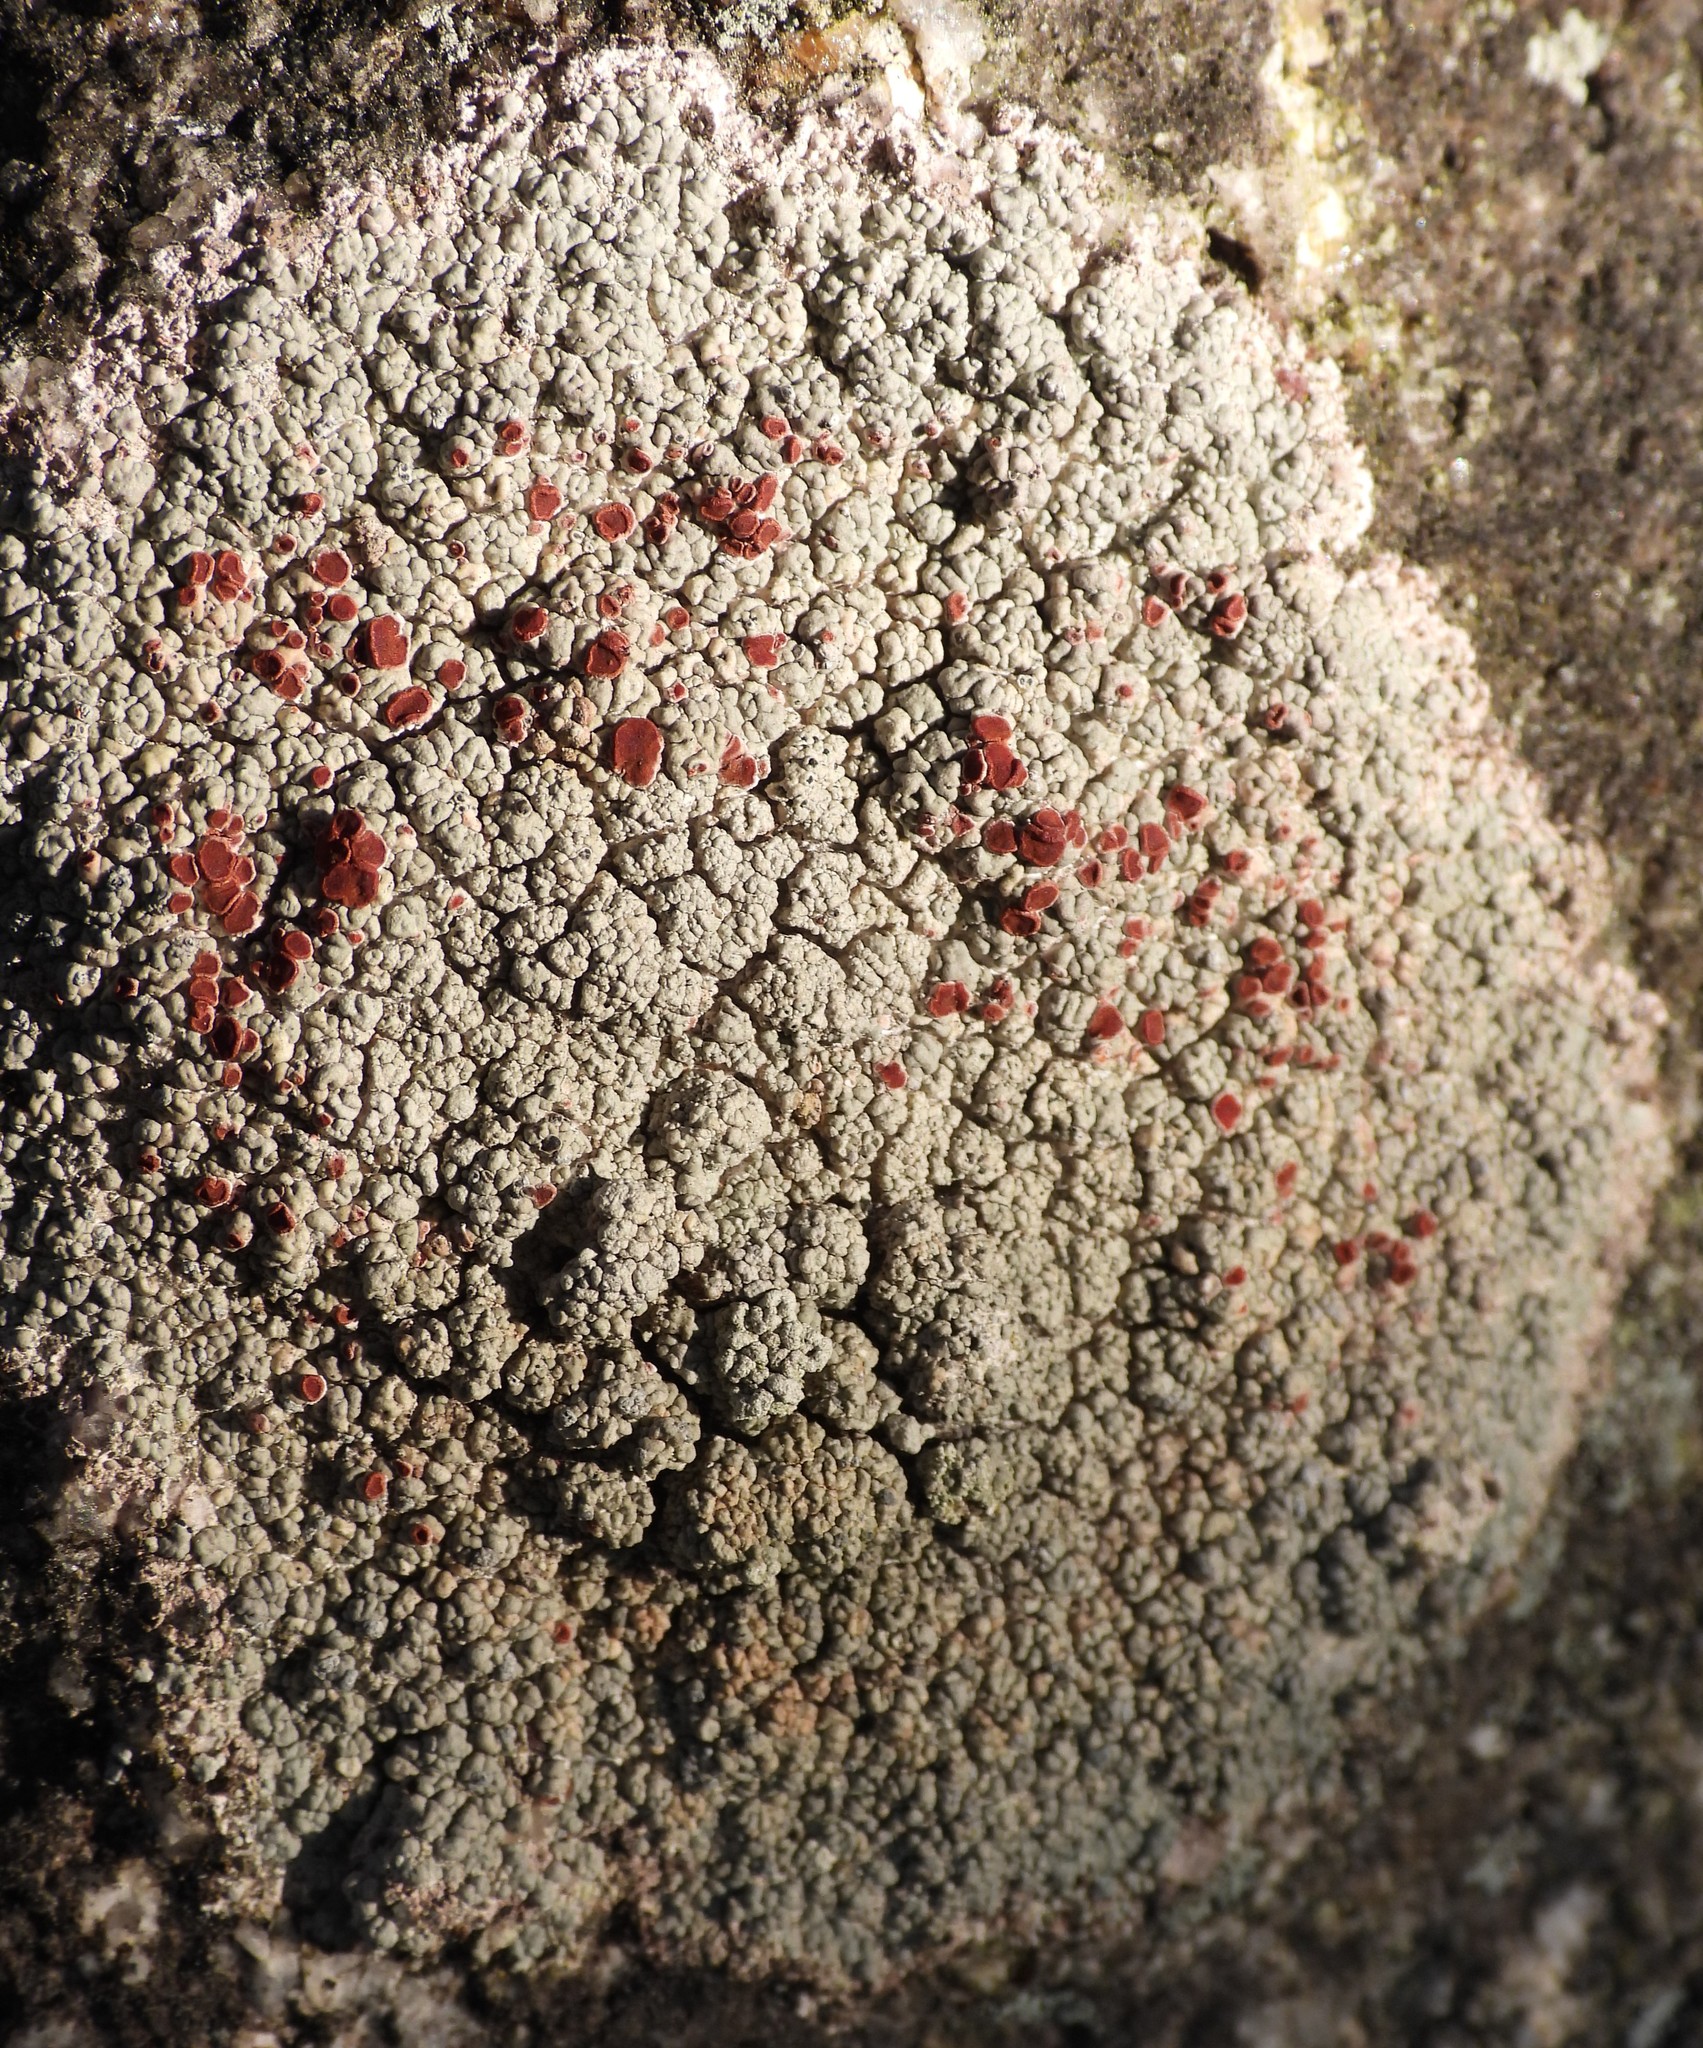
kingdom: Fungi
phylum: Ascomycota
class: Lecanoromycetes
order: Umbilicariales
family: Ophioparmaceae
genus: Ophioparma
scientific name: Ophioparma ventosa
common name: Blood-spot
